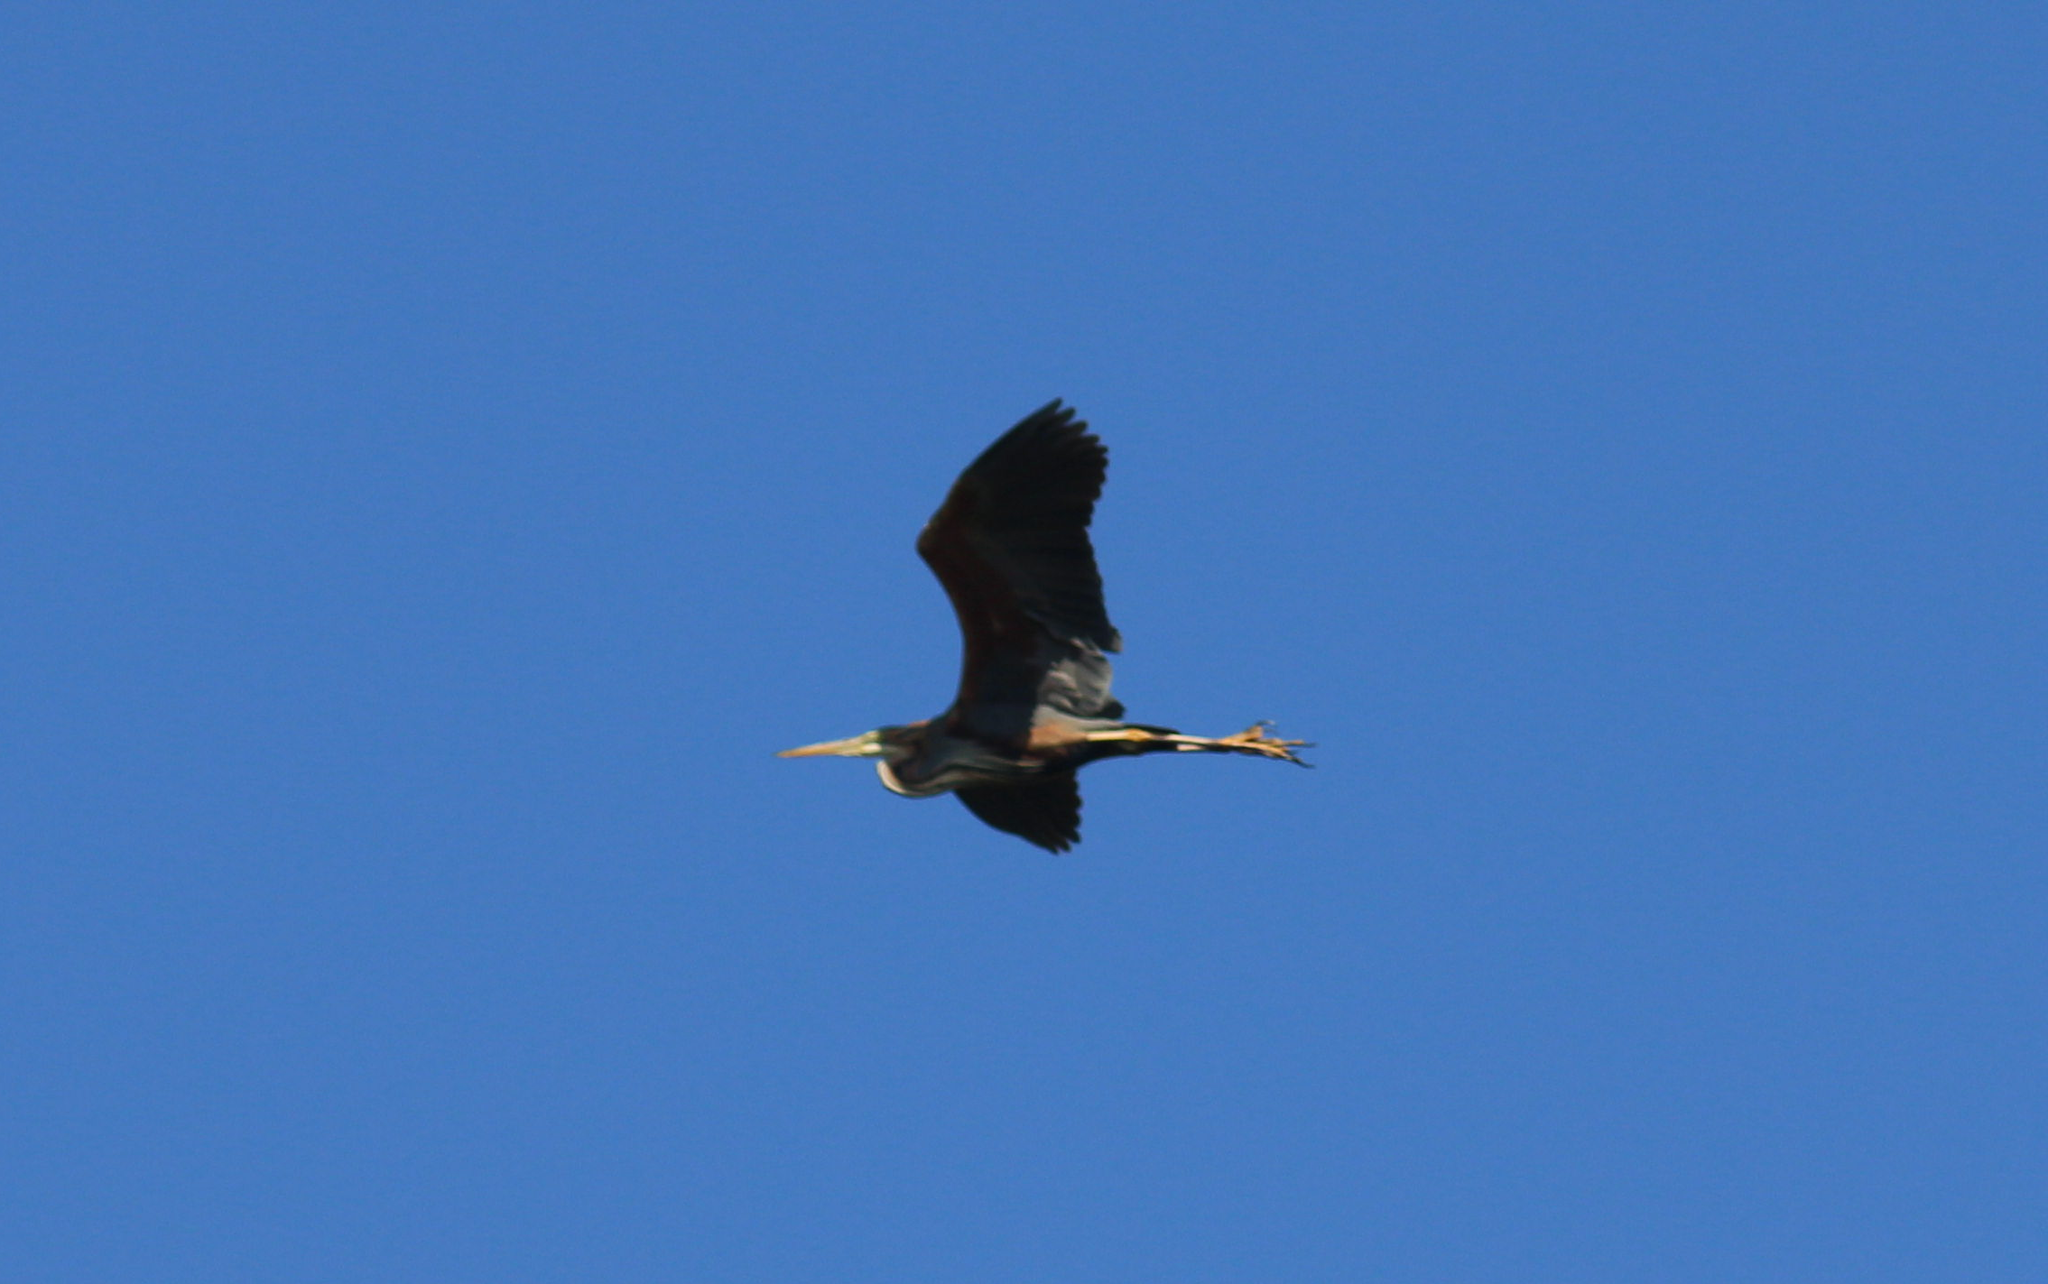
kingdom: Animalia
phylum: Chordata
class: Aves
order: Pelecaniformes
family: Ardeidae
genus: Ardea
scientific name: Ardea purpurea
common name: Purple heron
